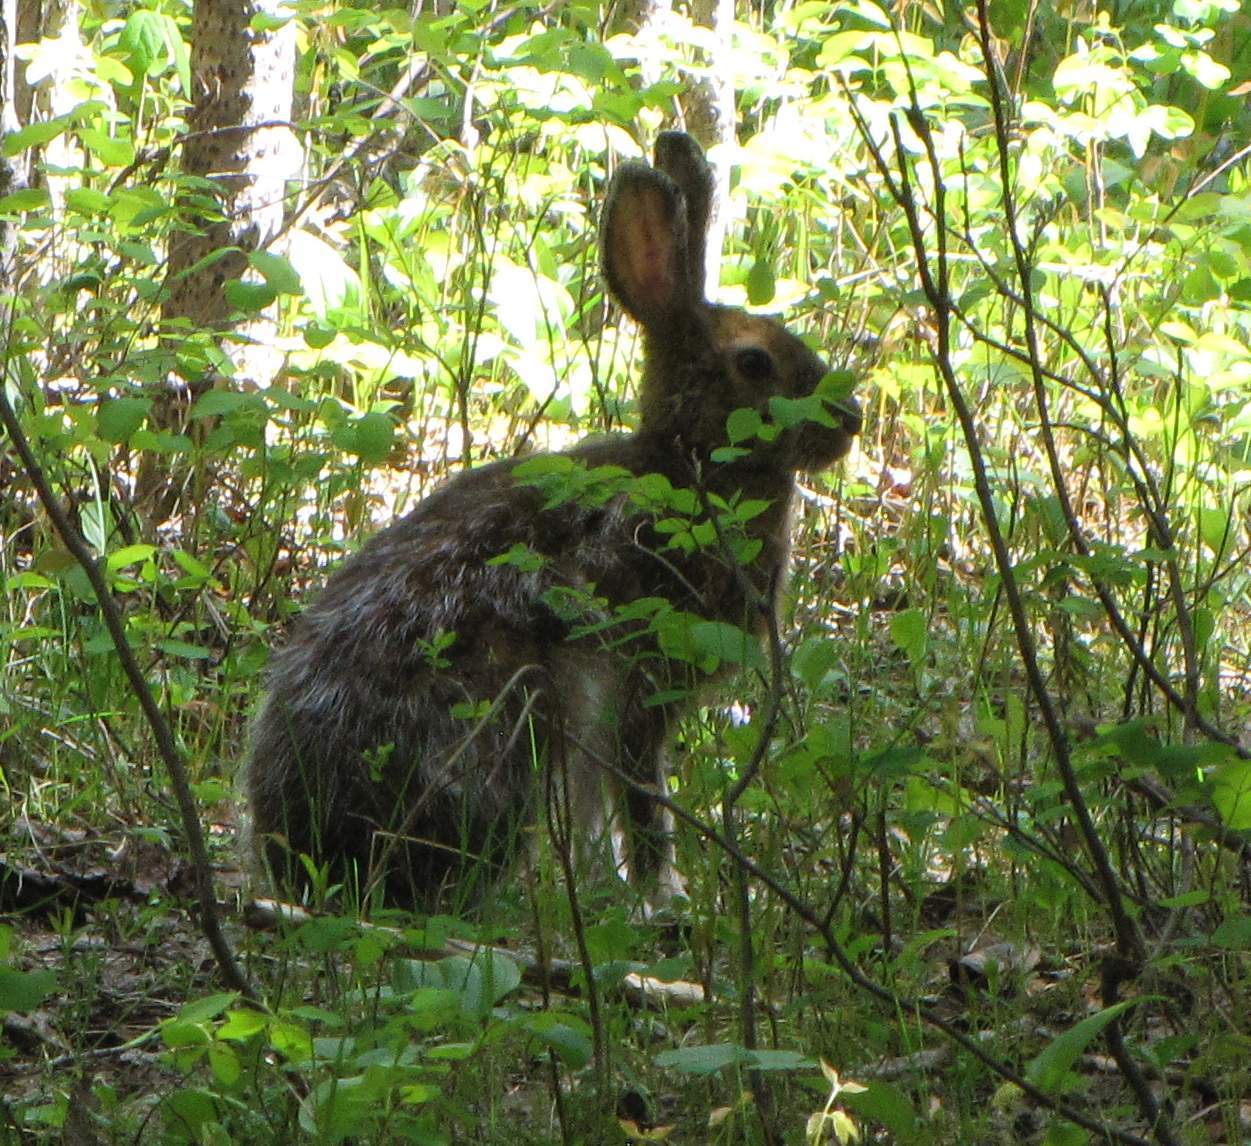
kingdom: Animalia
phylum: Chordata
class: Mammalia
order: Lagomorpha
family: Leporidae
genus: Lepus
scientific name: Lepus americanus
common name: Snowshoe hare
